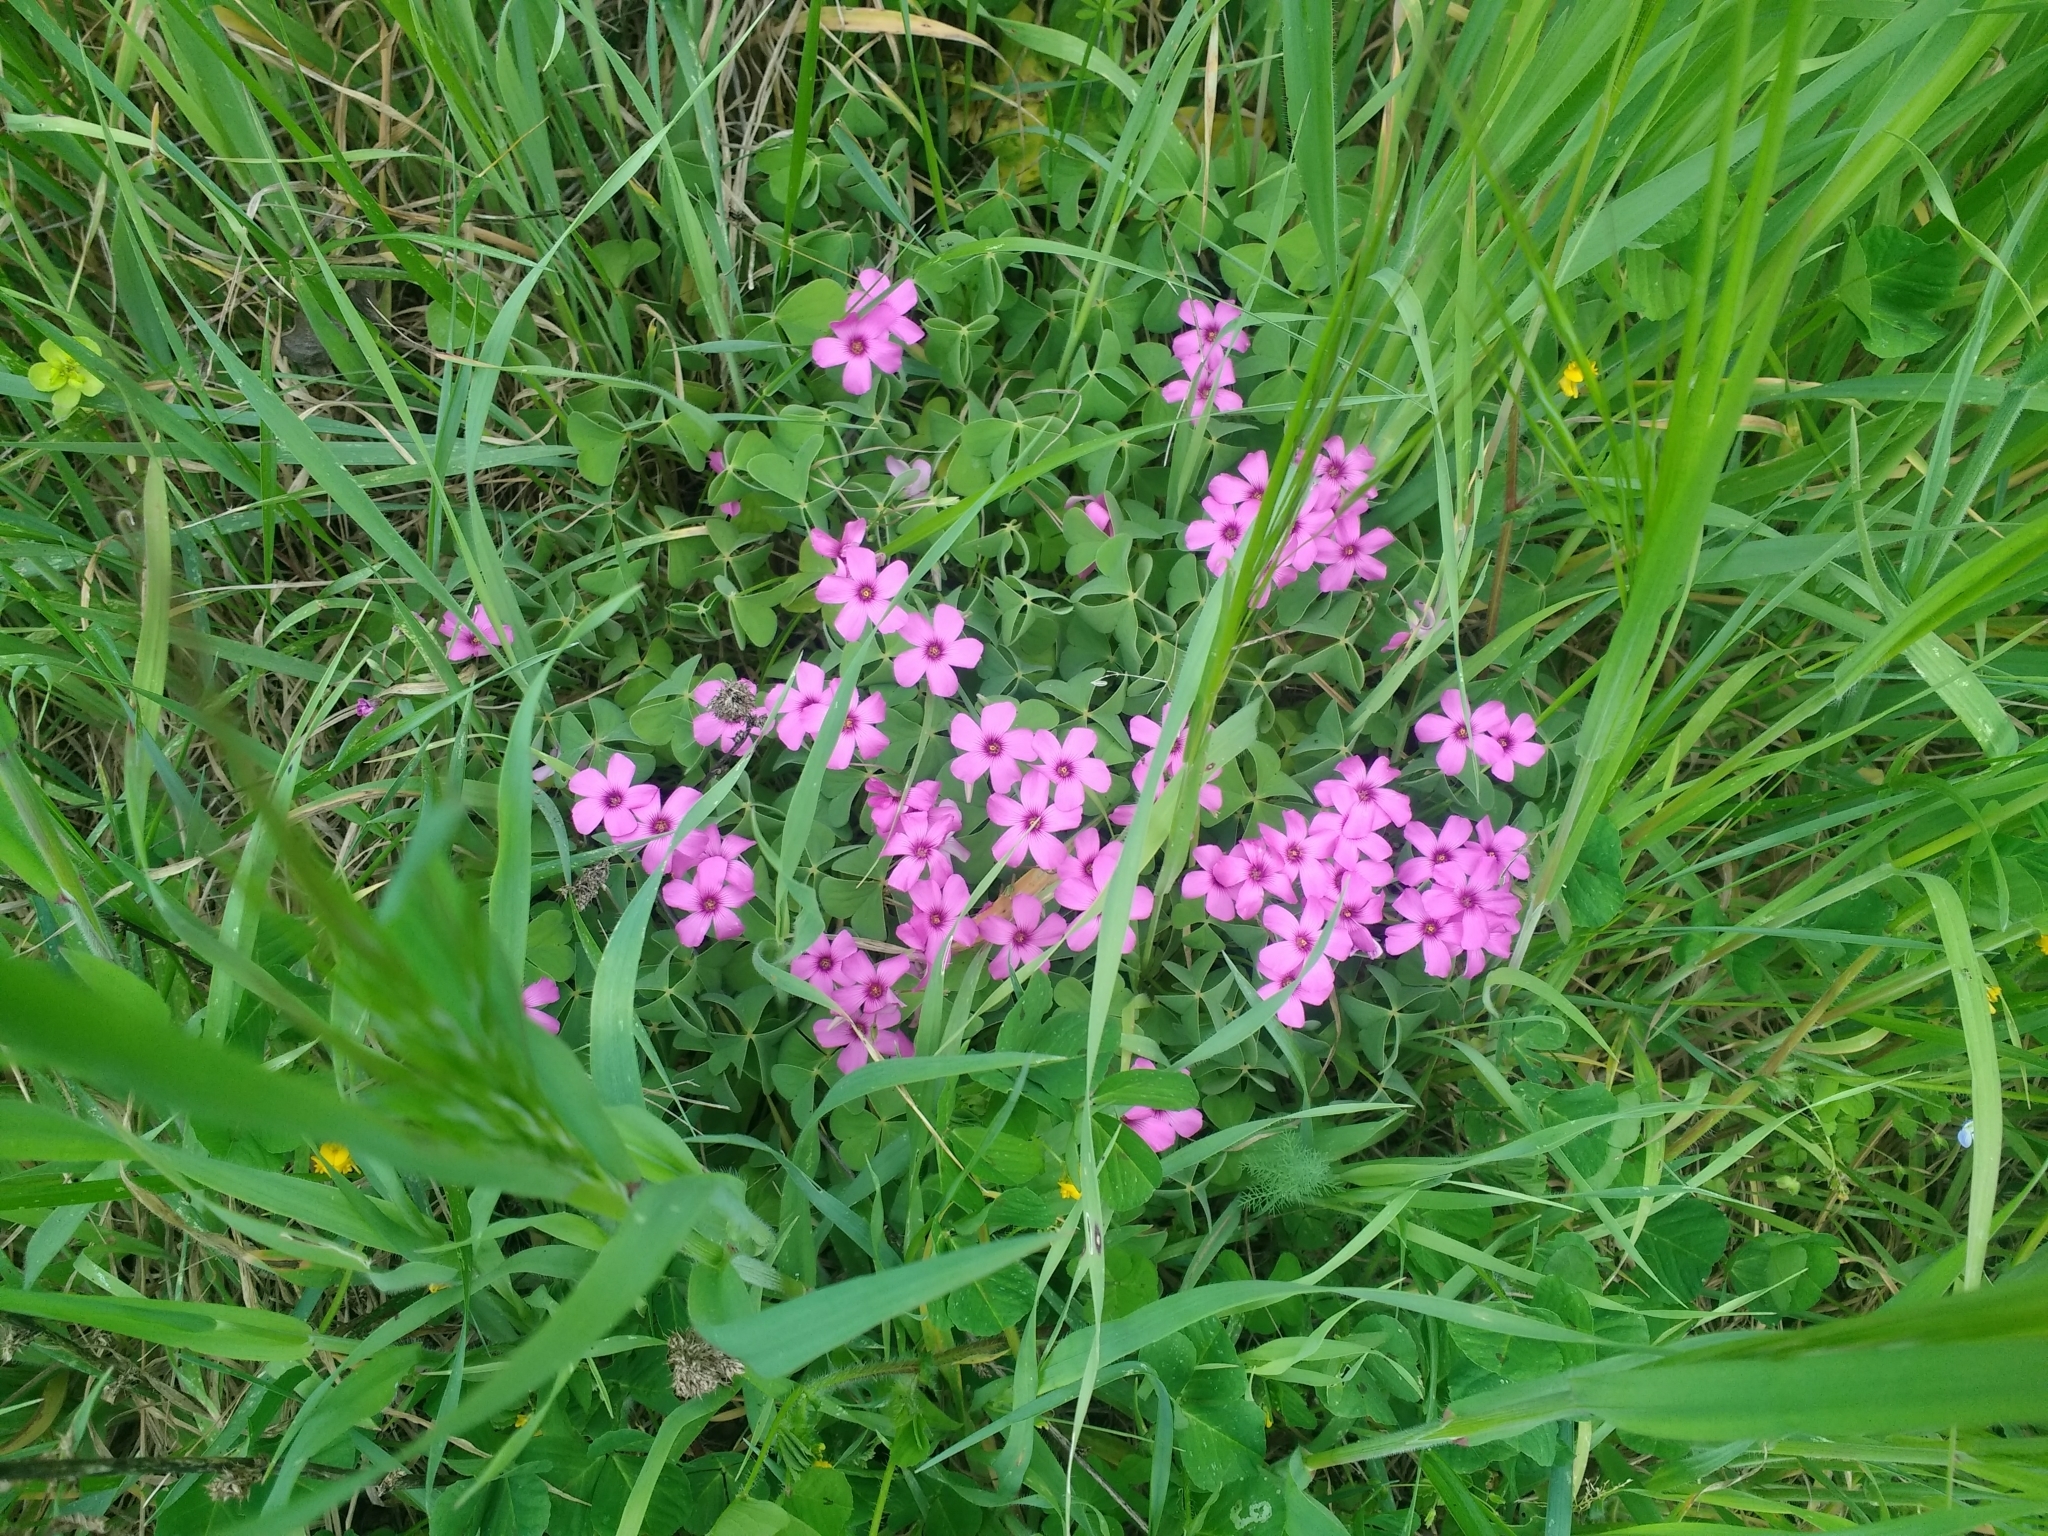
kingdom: Plantae
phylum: Tracheophyta
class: Magnoliopsida
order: Oxalidales
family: Oxalidaceae
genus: Oxalis
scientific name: Oxalis articulata
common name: Pink-sorrel
